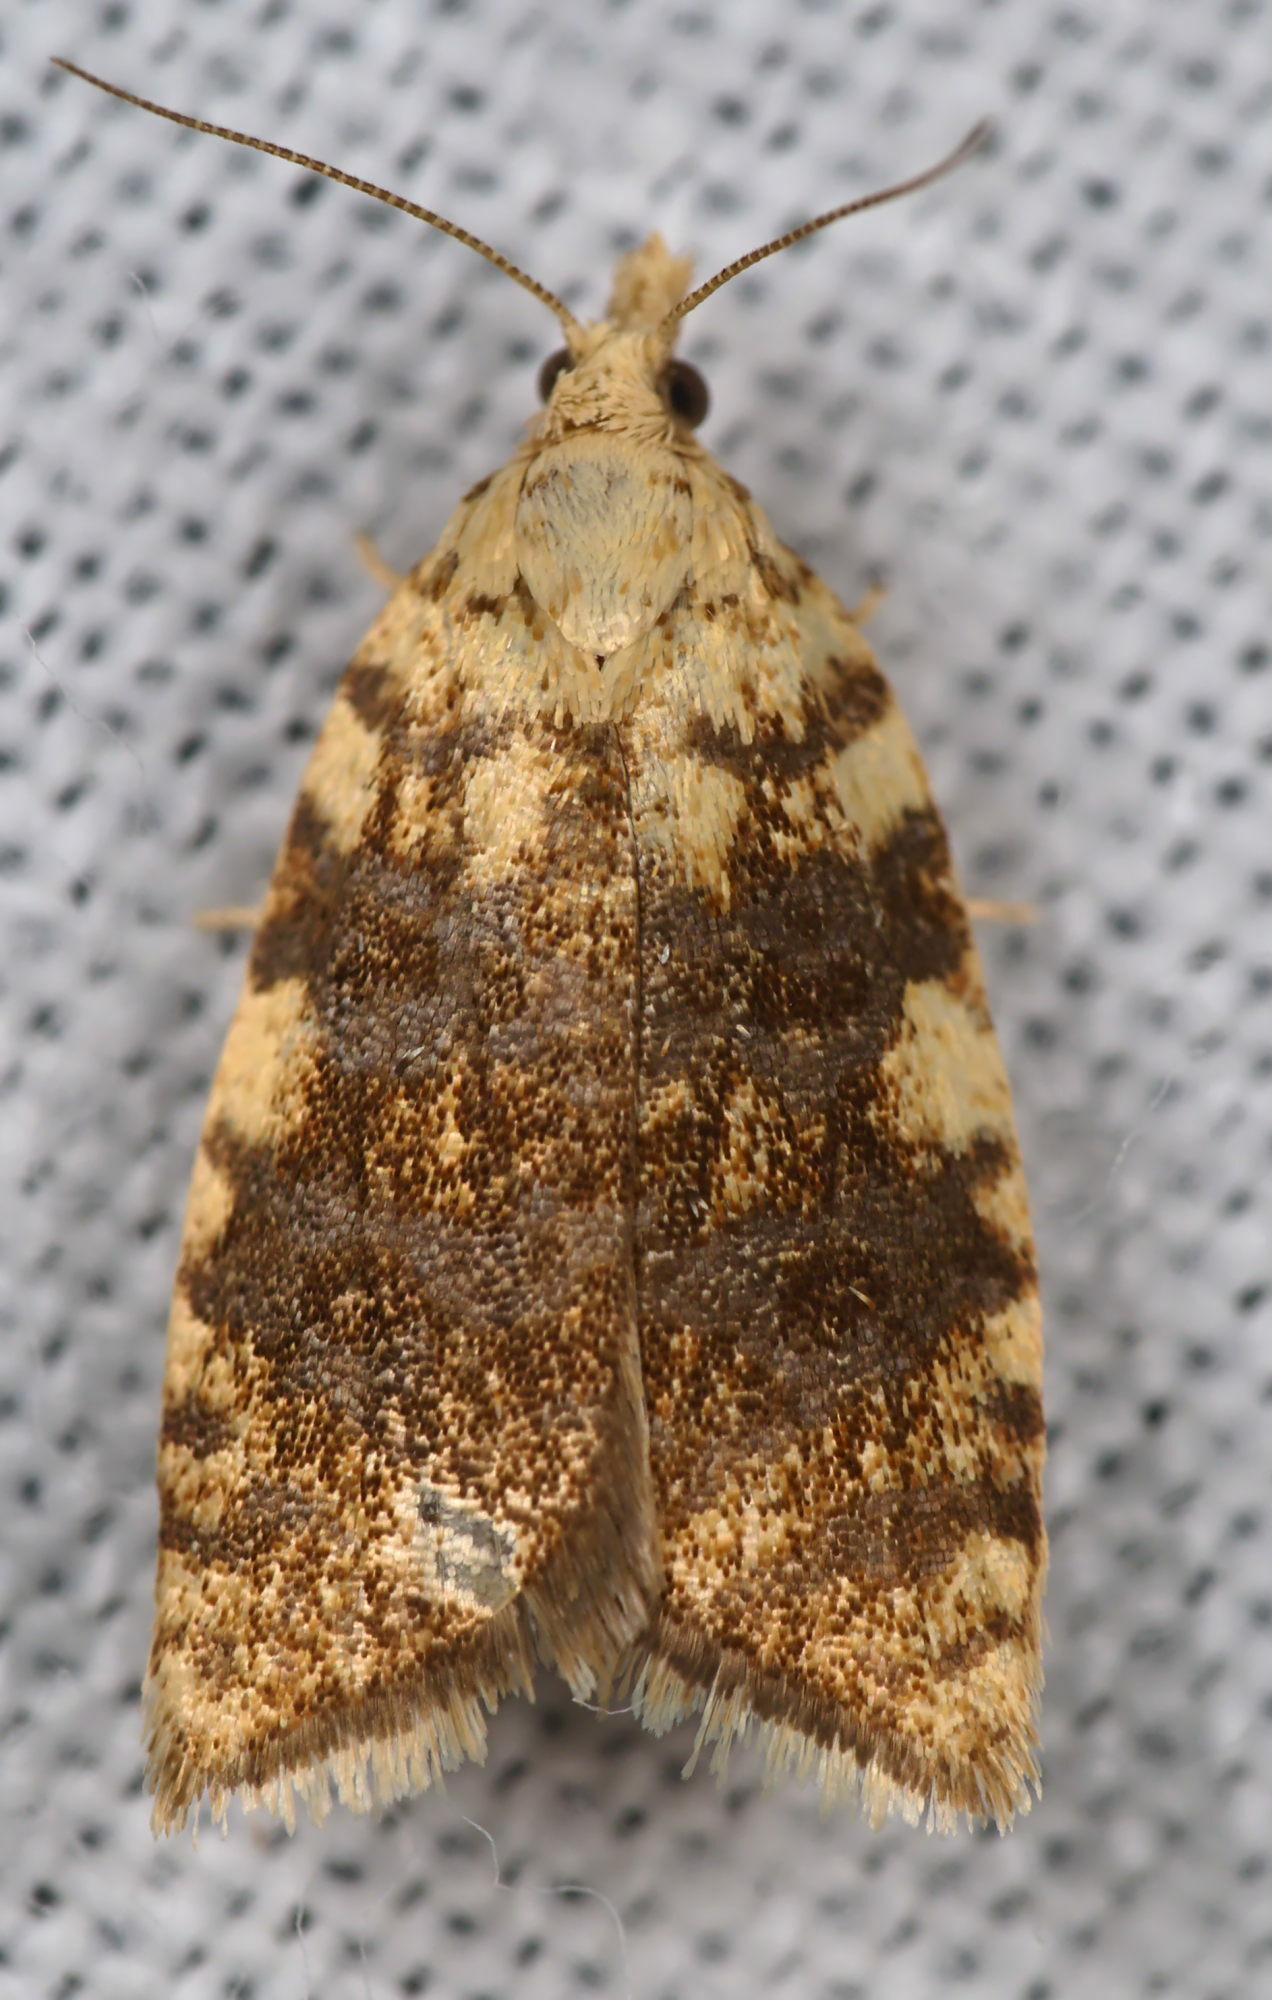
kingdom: Animalia
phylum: Arthropoda
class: Insecta
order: Lepidoptera
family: Tortricidae
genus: Aleimma
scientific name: Aleimma loeflingiana
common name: Yellow oak button
